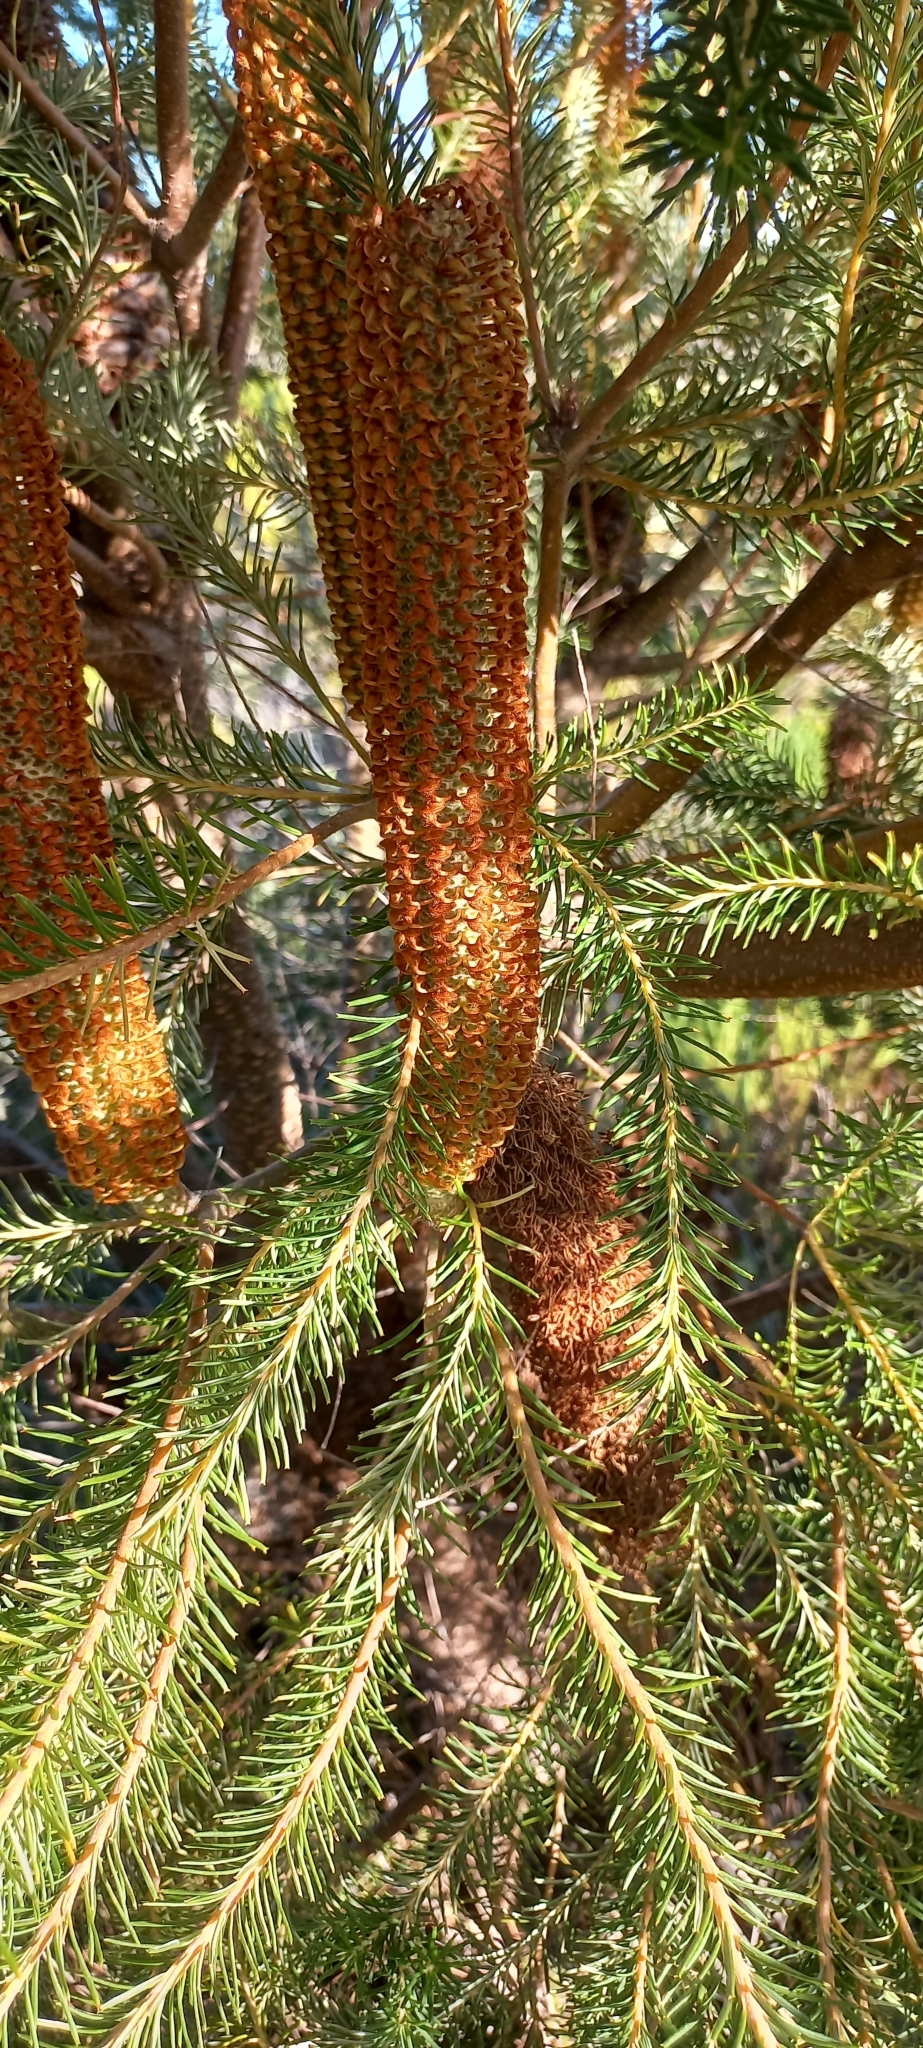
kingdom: Plantae
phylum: Tracheophyta
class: Magnoliopsida
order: Proteales
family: Proteaceae
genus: Banksia
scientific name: Banksia ericifolia
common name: Heath-leaf banksia
